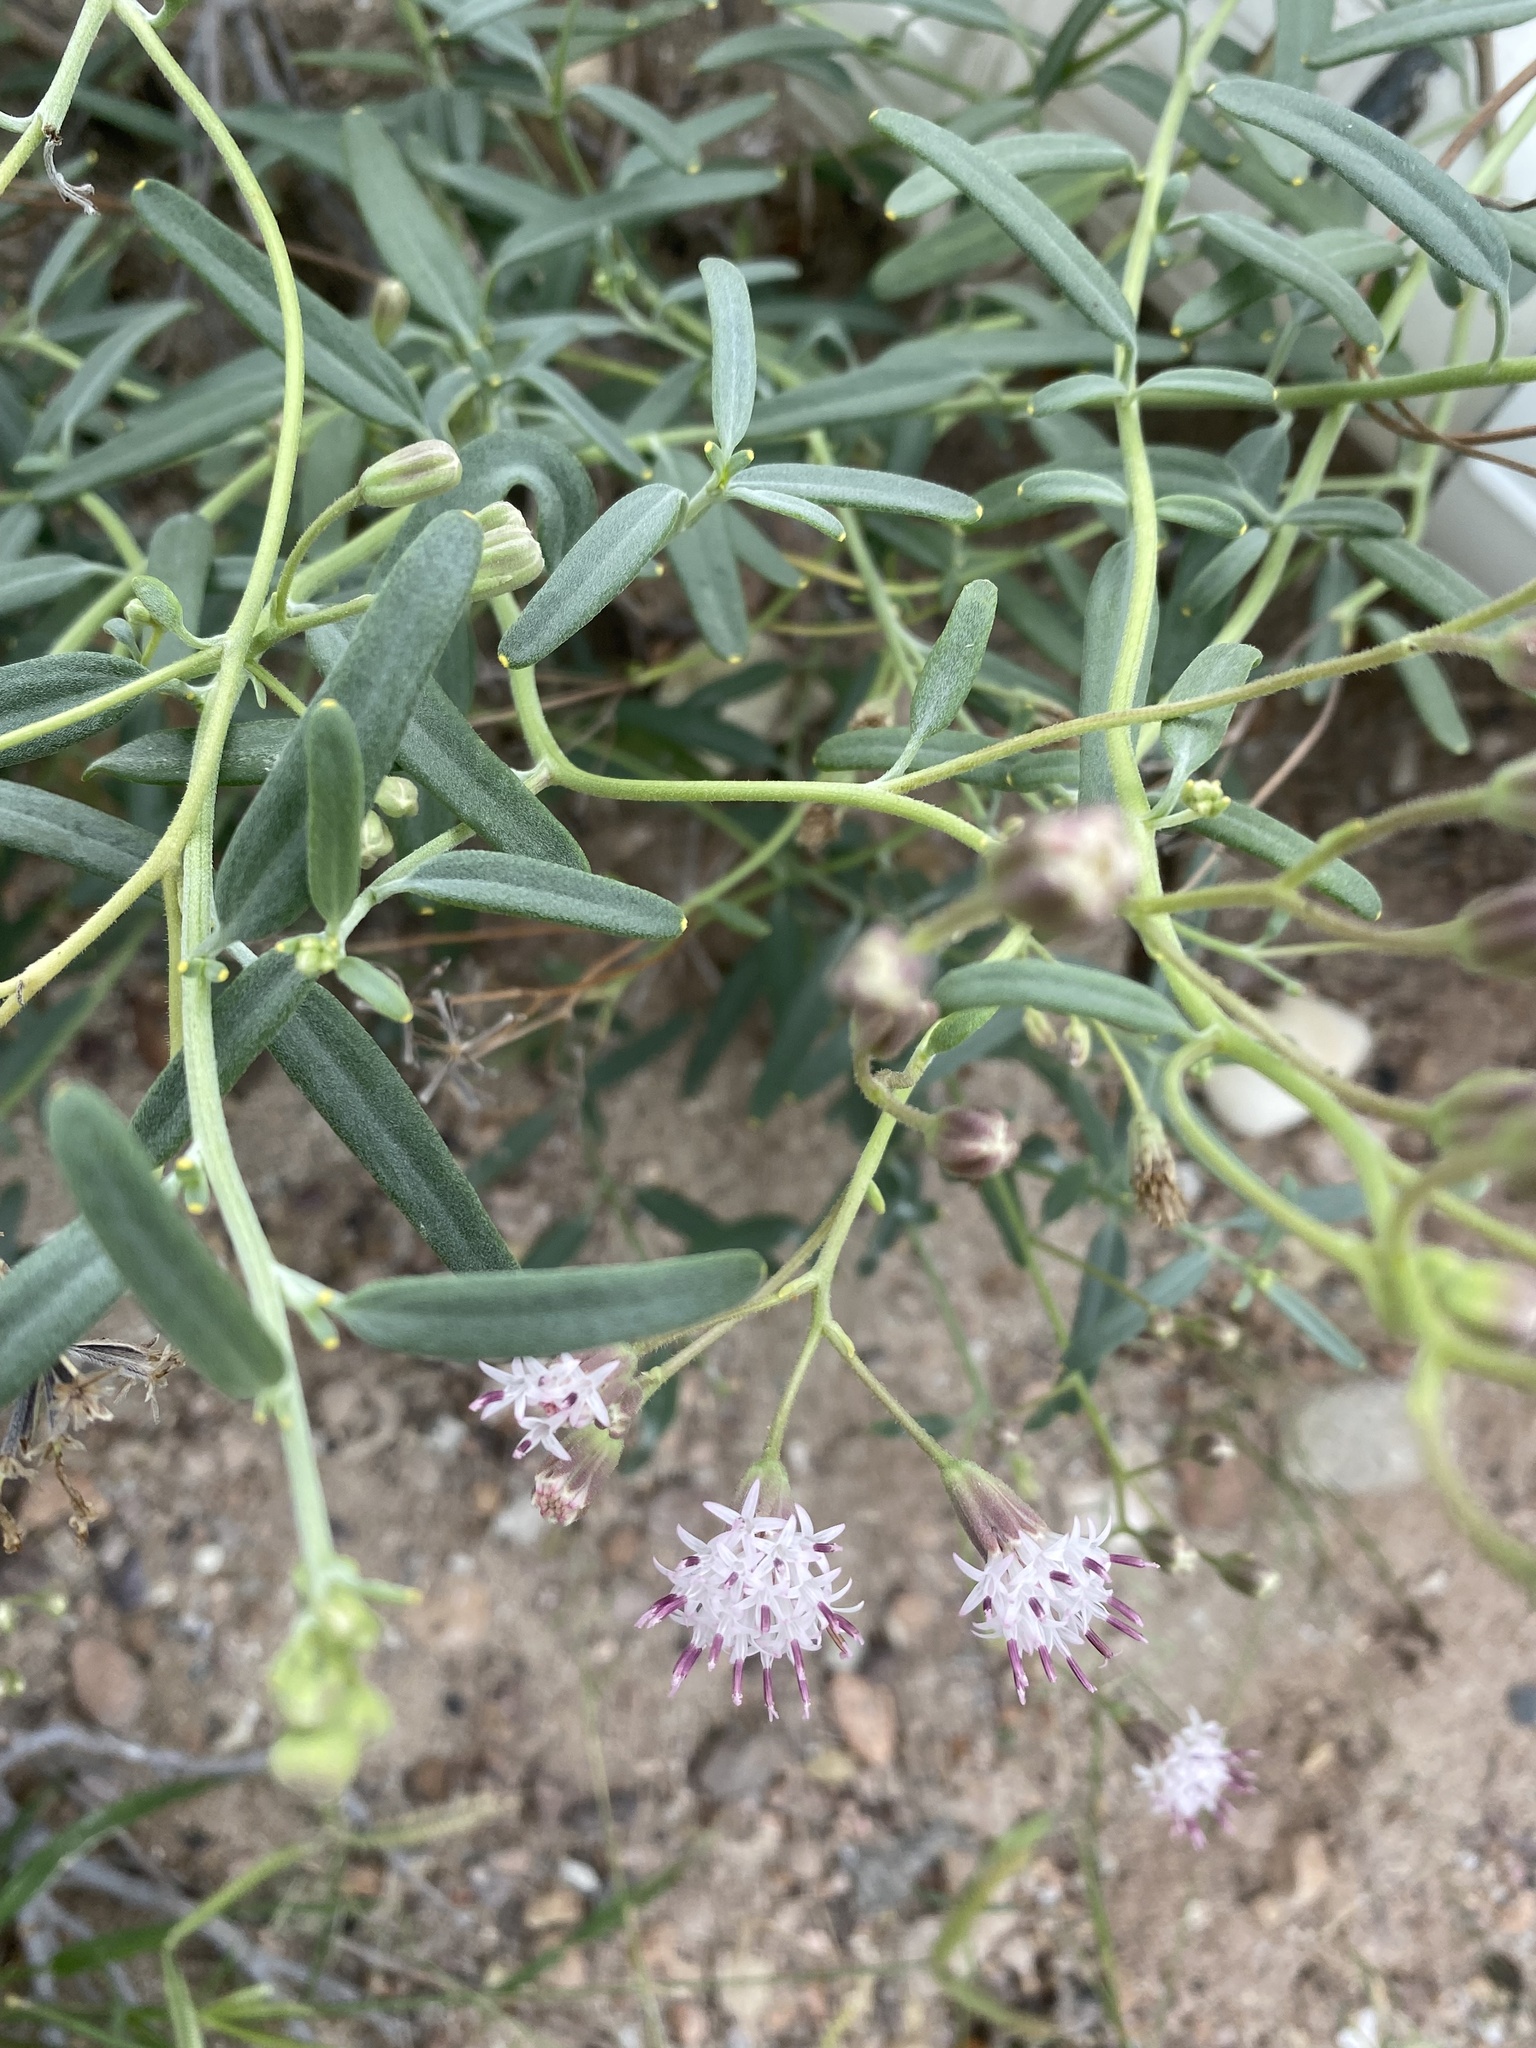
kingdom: Plantae
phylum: Tracheophyta
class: Magnoliopsida
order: Asterales
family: Asteraceae
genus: Palafoxia
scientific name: Palafoxia linearis
